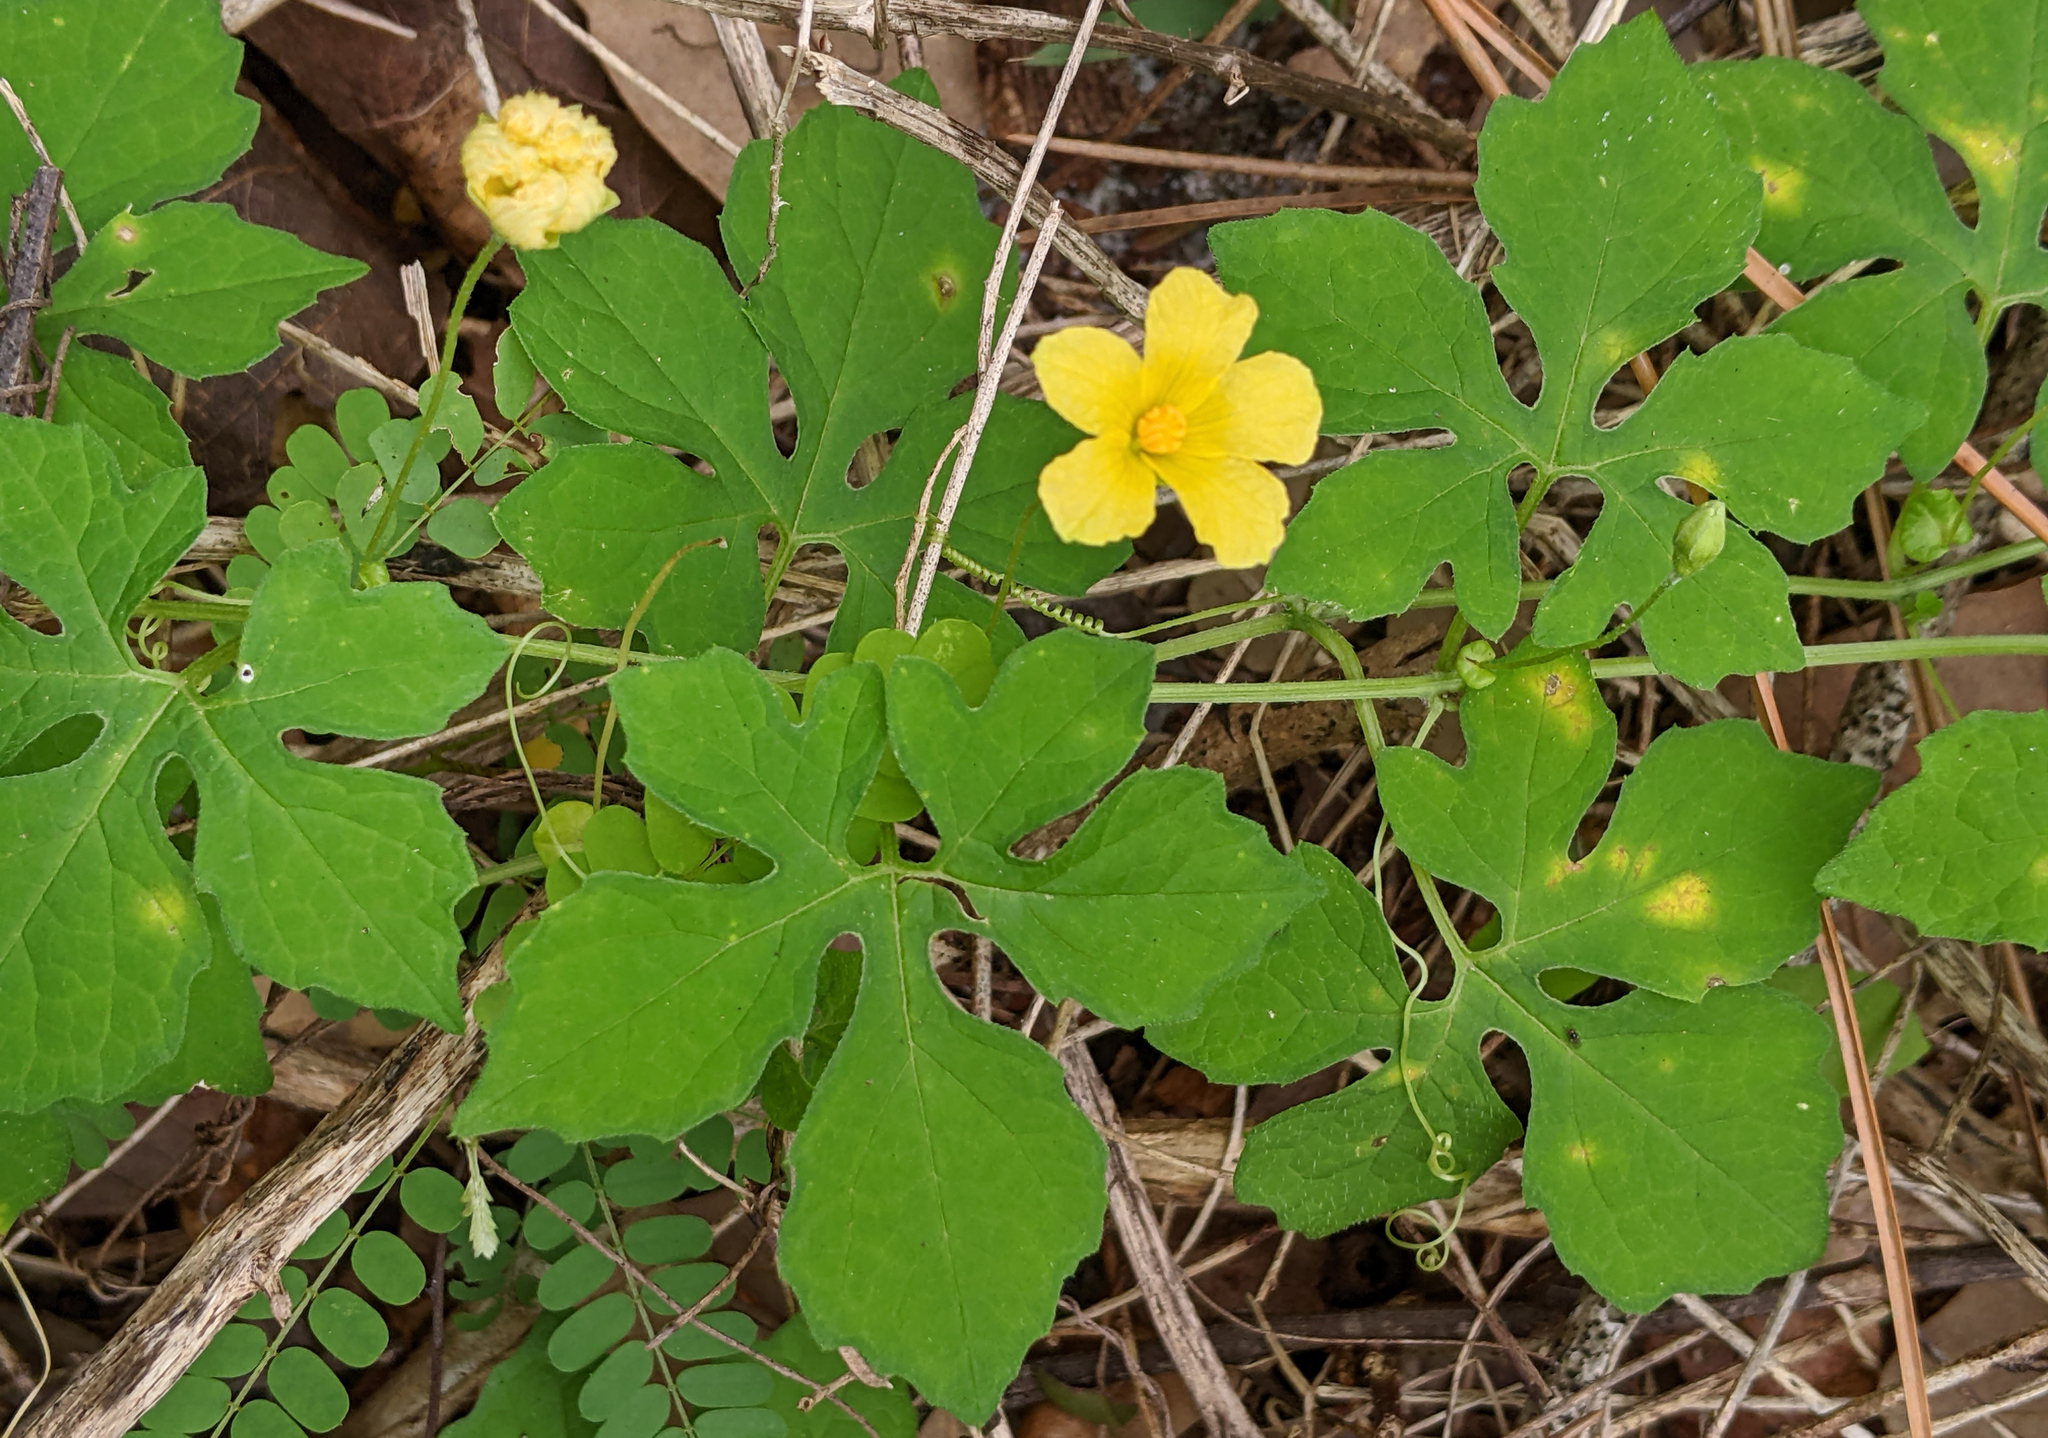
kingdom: Plantae
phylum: Tracheophyta
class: Magnoliopsida
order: Cucurbitales
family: Cucurbitaceae
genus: Momordica
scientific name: Momordica charantia
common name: Balsampear
